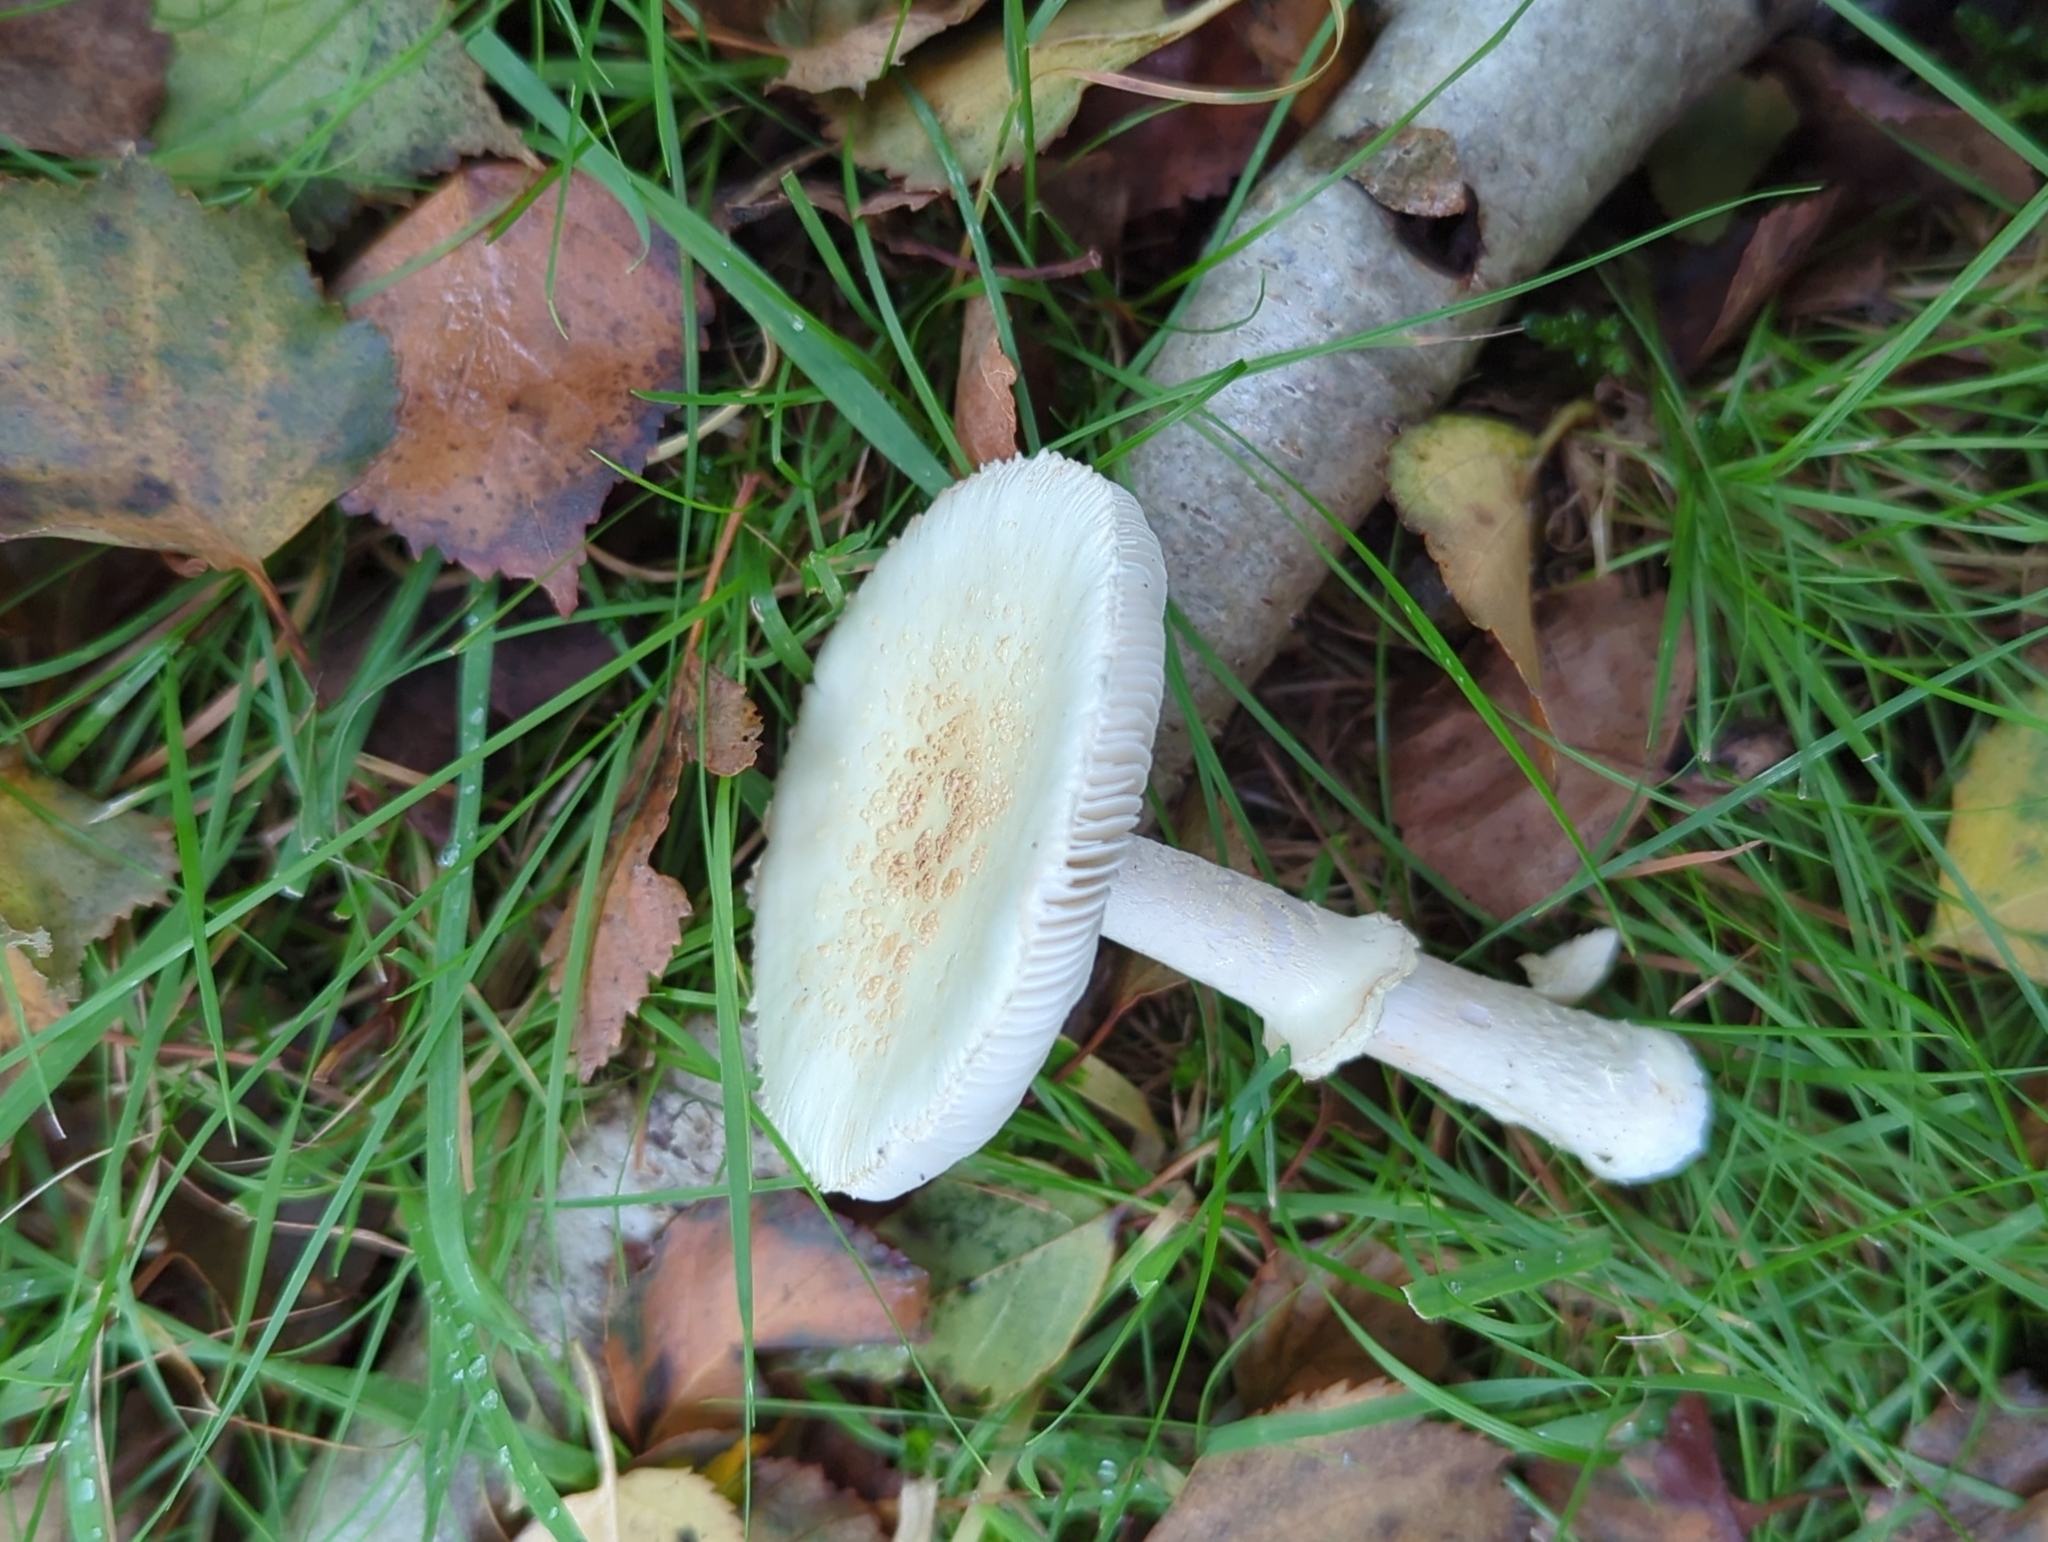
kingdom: Fungi
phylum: Basidiomycota
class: Agaricomycetes
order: Agaricales
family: Amanitaceae
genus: Amanita
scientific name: Amanita citrina
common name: False death-cap
